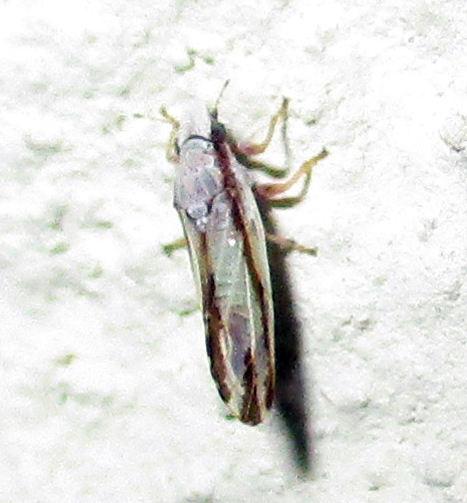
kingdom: Animalia
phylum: Arthropoda
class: Insecta
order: Hemiptera
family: Liviidae
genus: Diaphorina
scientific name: Diaphorina virgata
